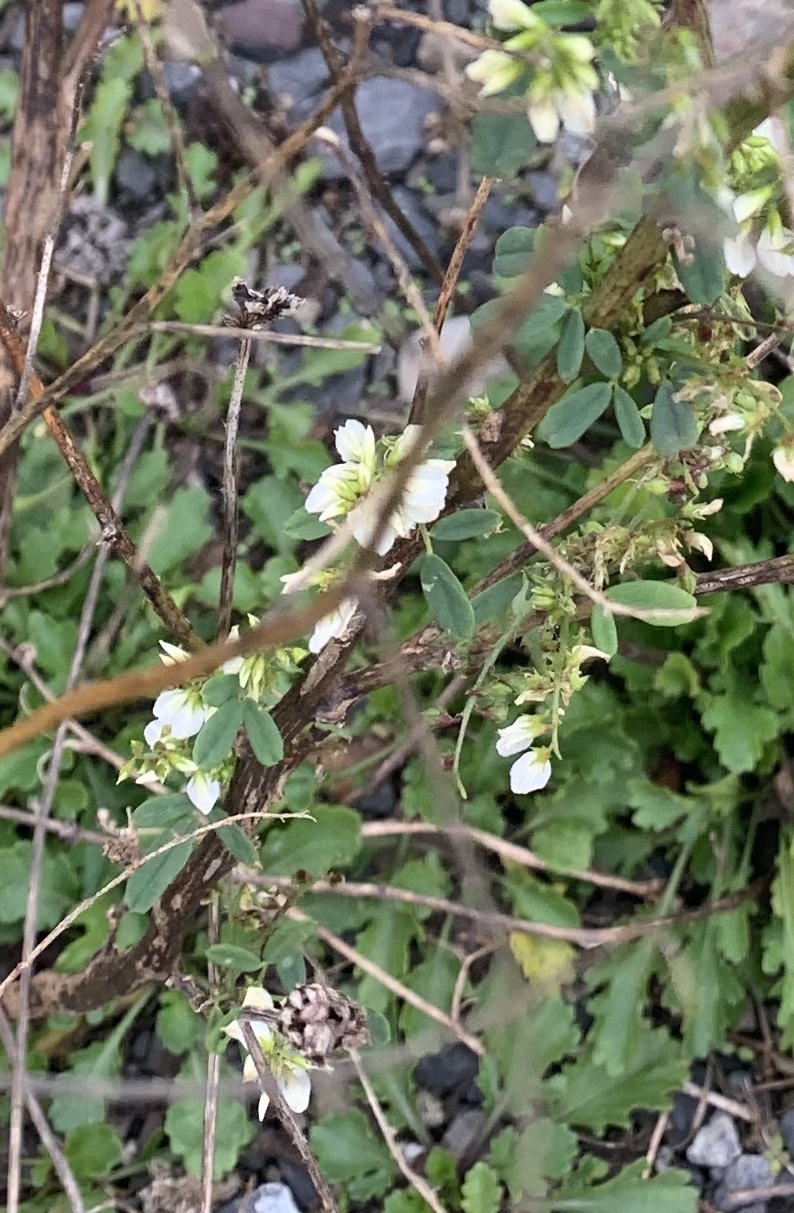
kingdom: Plantae
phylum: Tracheophyta
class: Magnoliopsida
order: Fabales
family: Fabaceae
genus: Melilotus
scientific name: Melilotus albus
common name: White melilot
